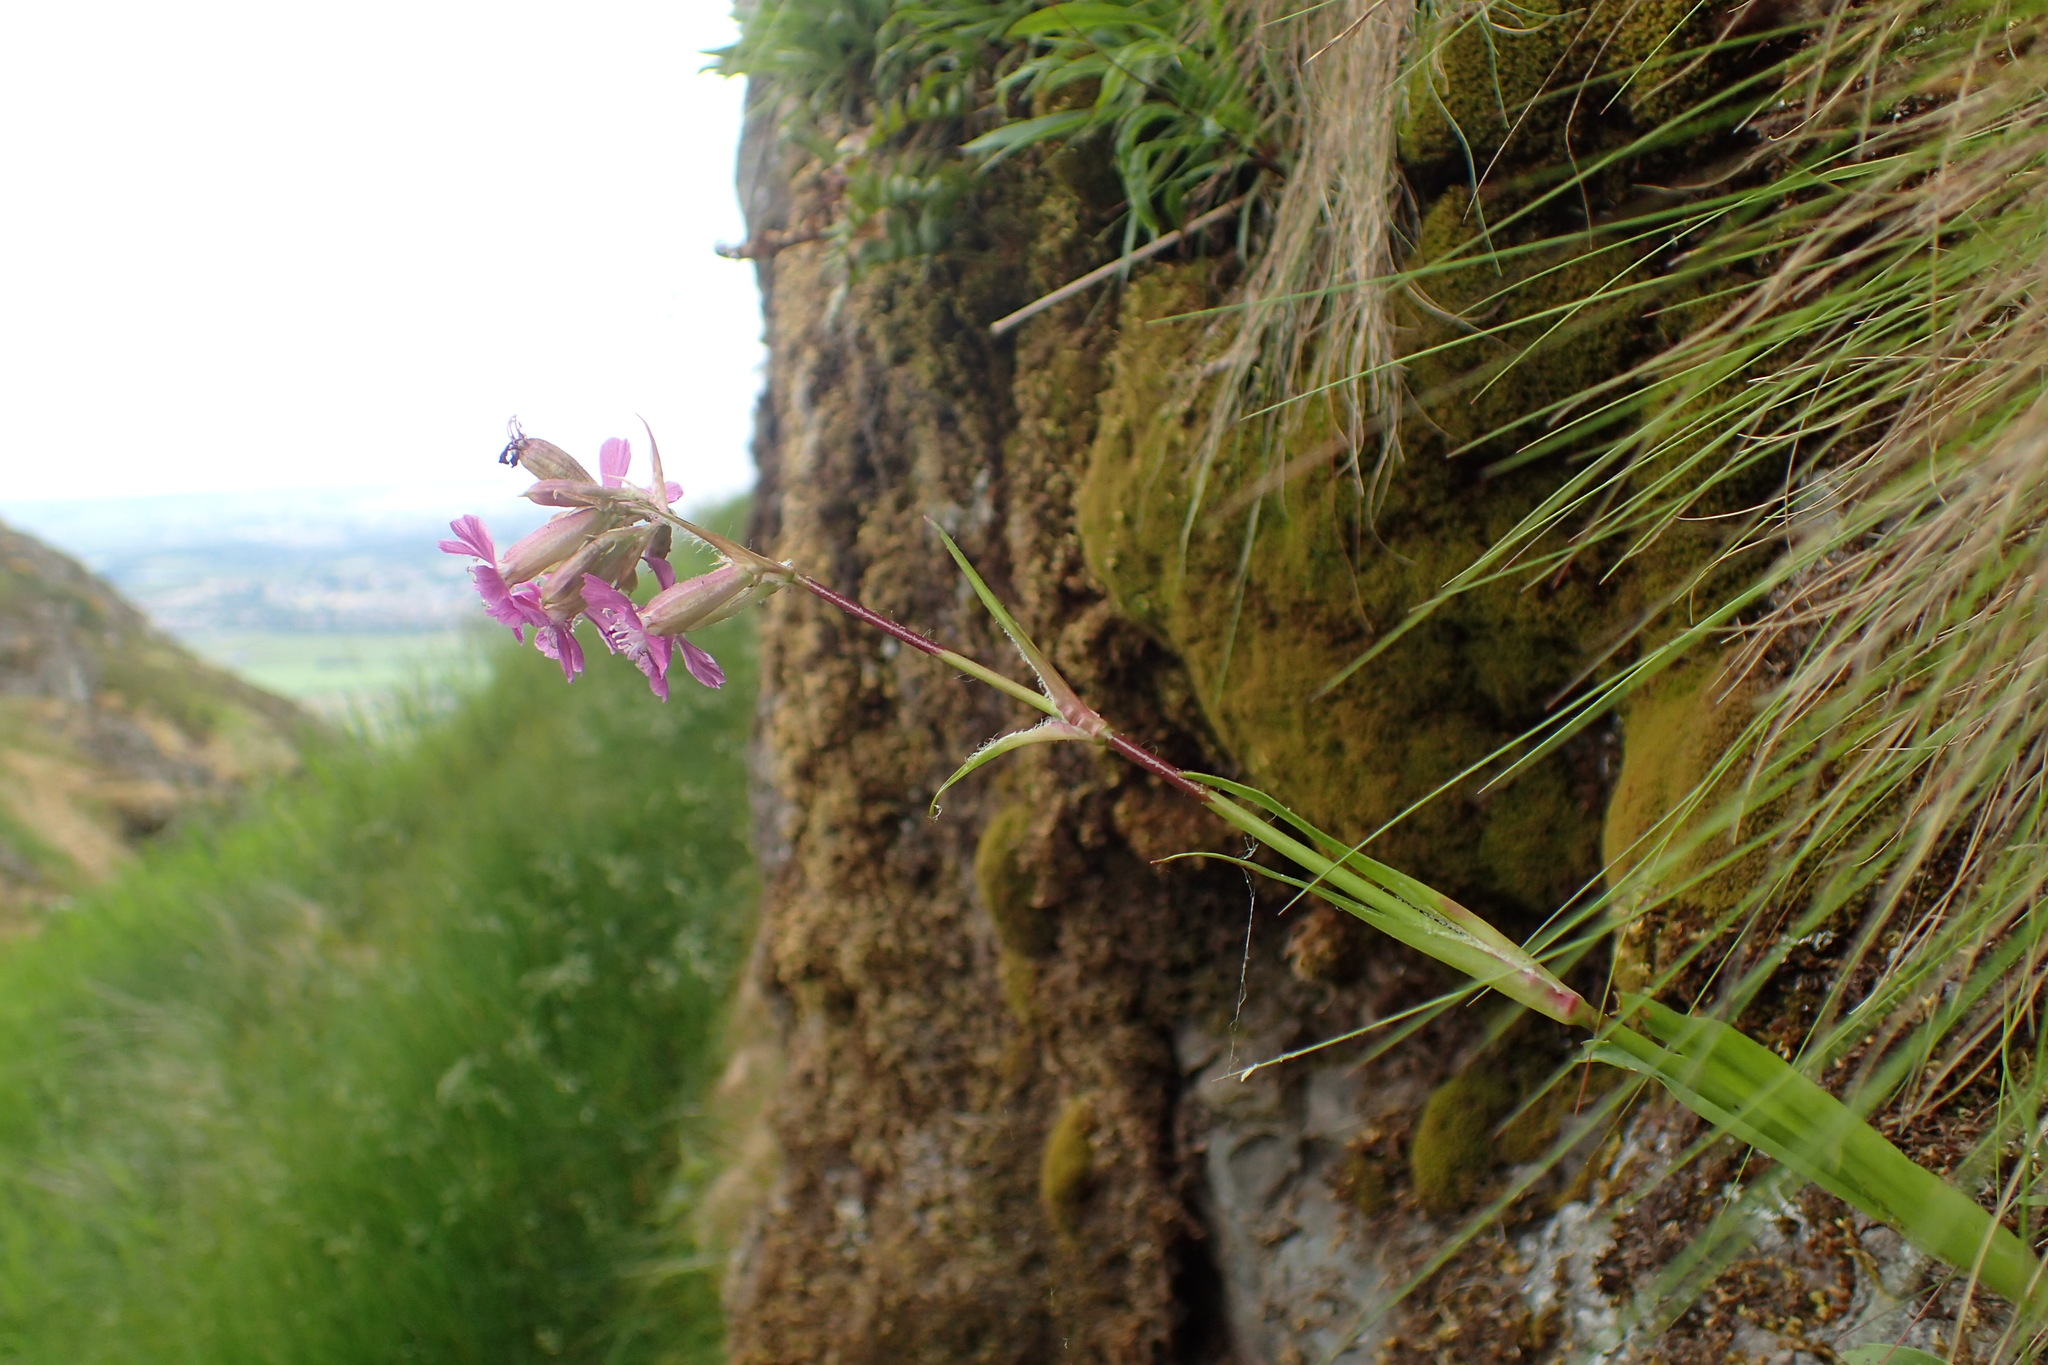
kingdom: Plantae
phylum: Tracheophyta
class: Magnoliopsida
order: Caryophyllales
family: Caryophyllaceae
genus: Viscaria
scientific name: Viscaria vulgaris
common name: Clammy campion
